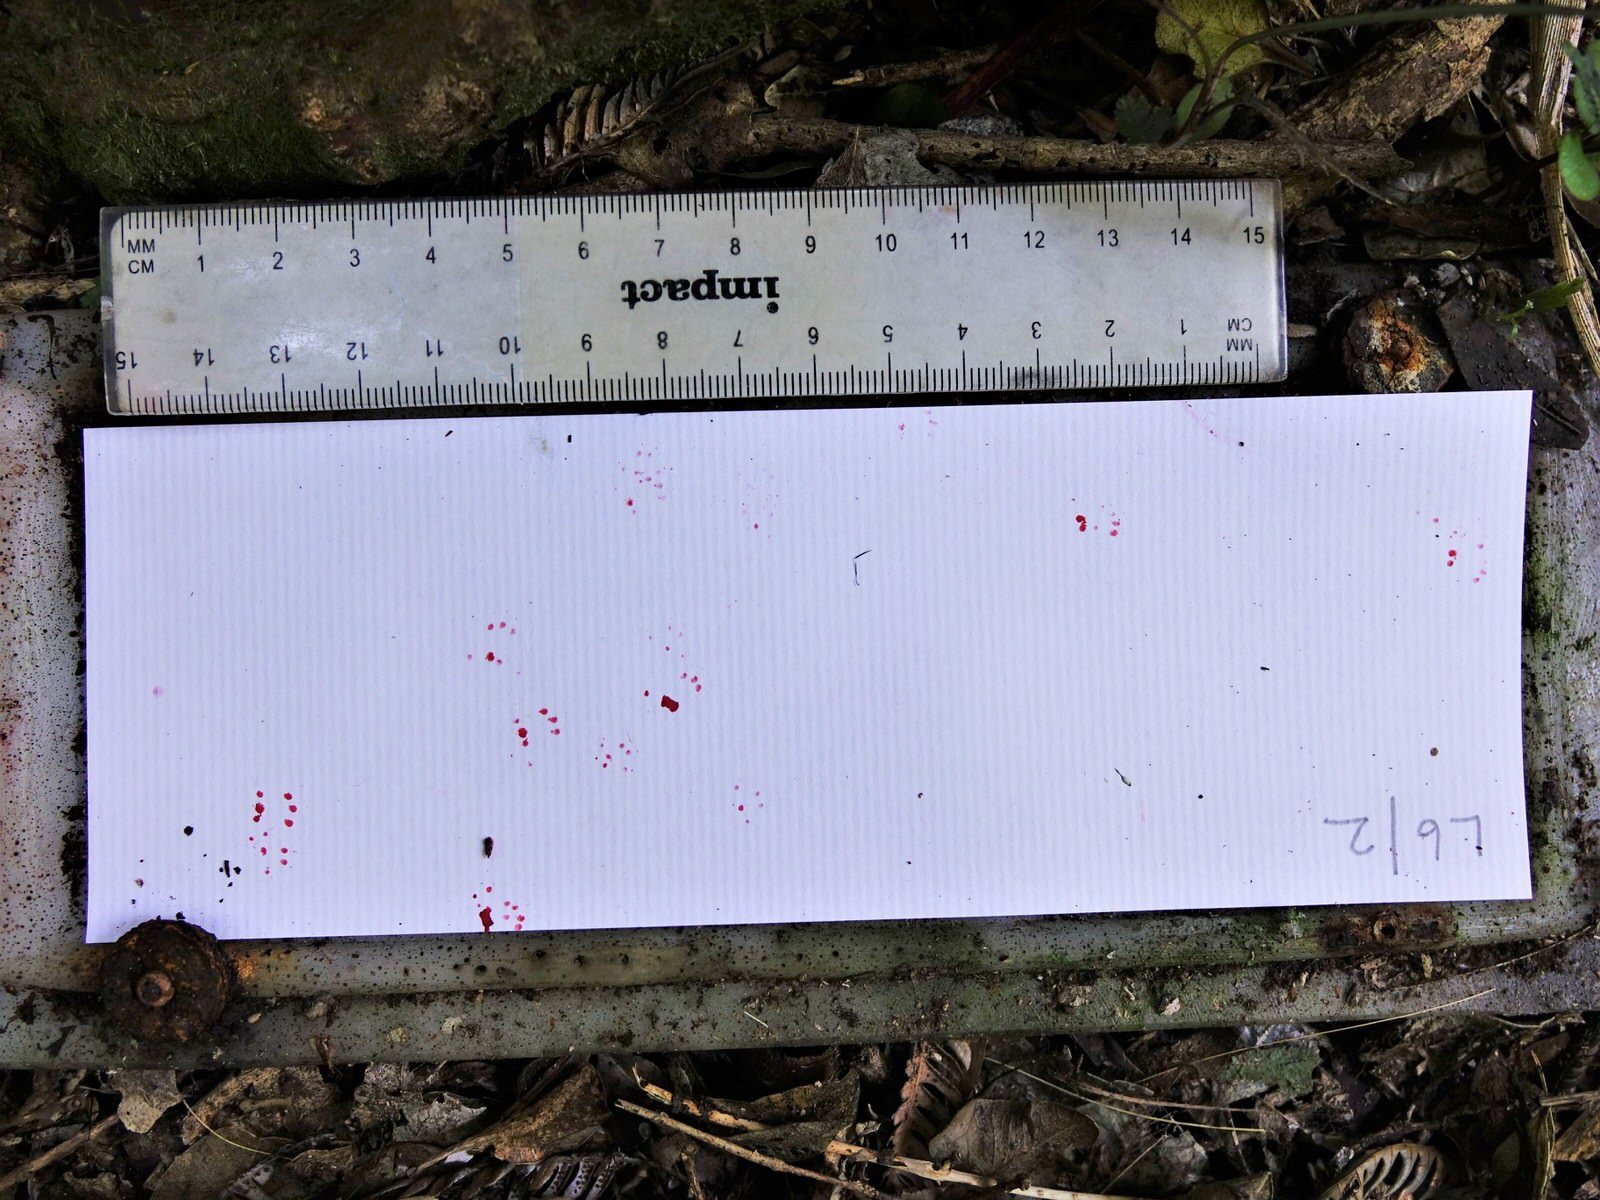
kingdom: Animalia
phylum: Chordata
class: Mammalia
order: Rodentia
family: Muridae
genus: Mus
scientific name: Mus musculus
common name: House mouse
